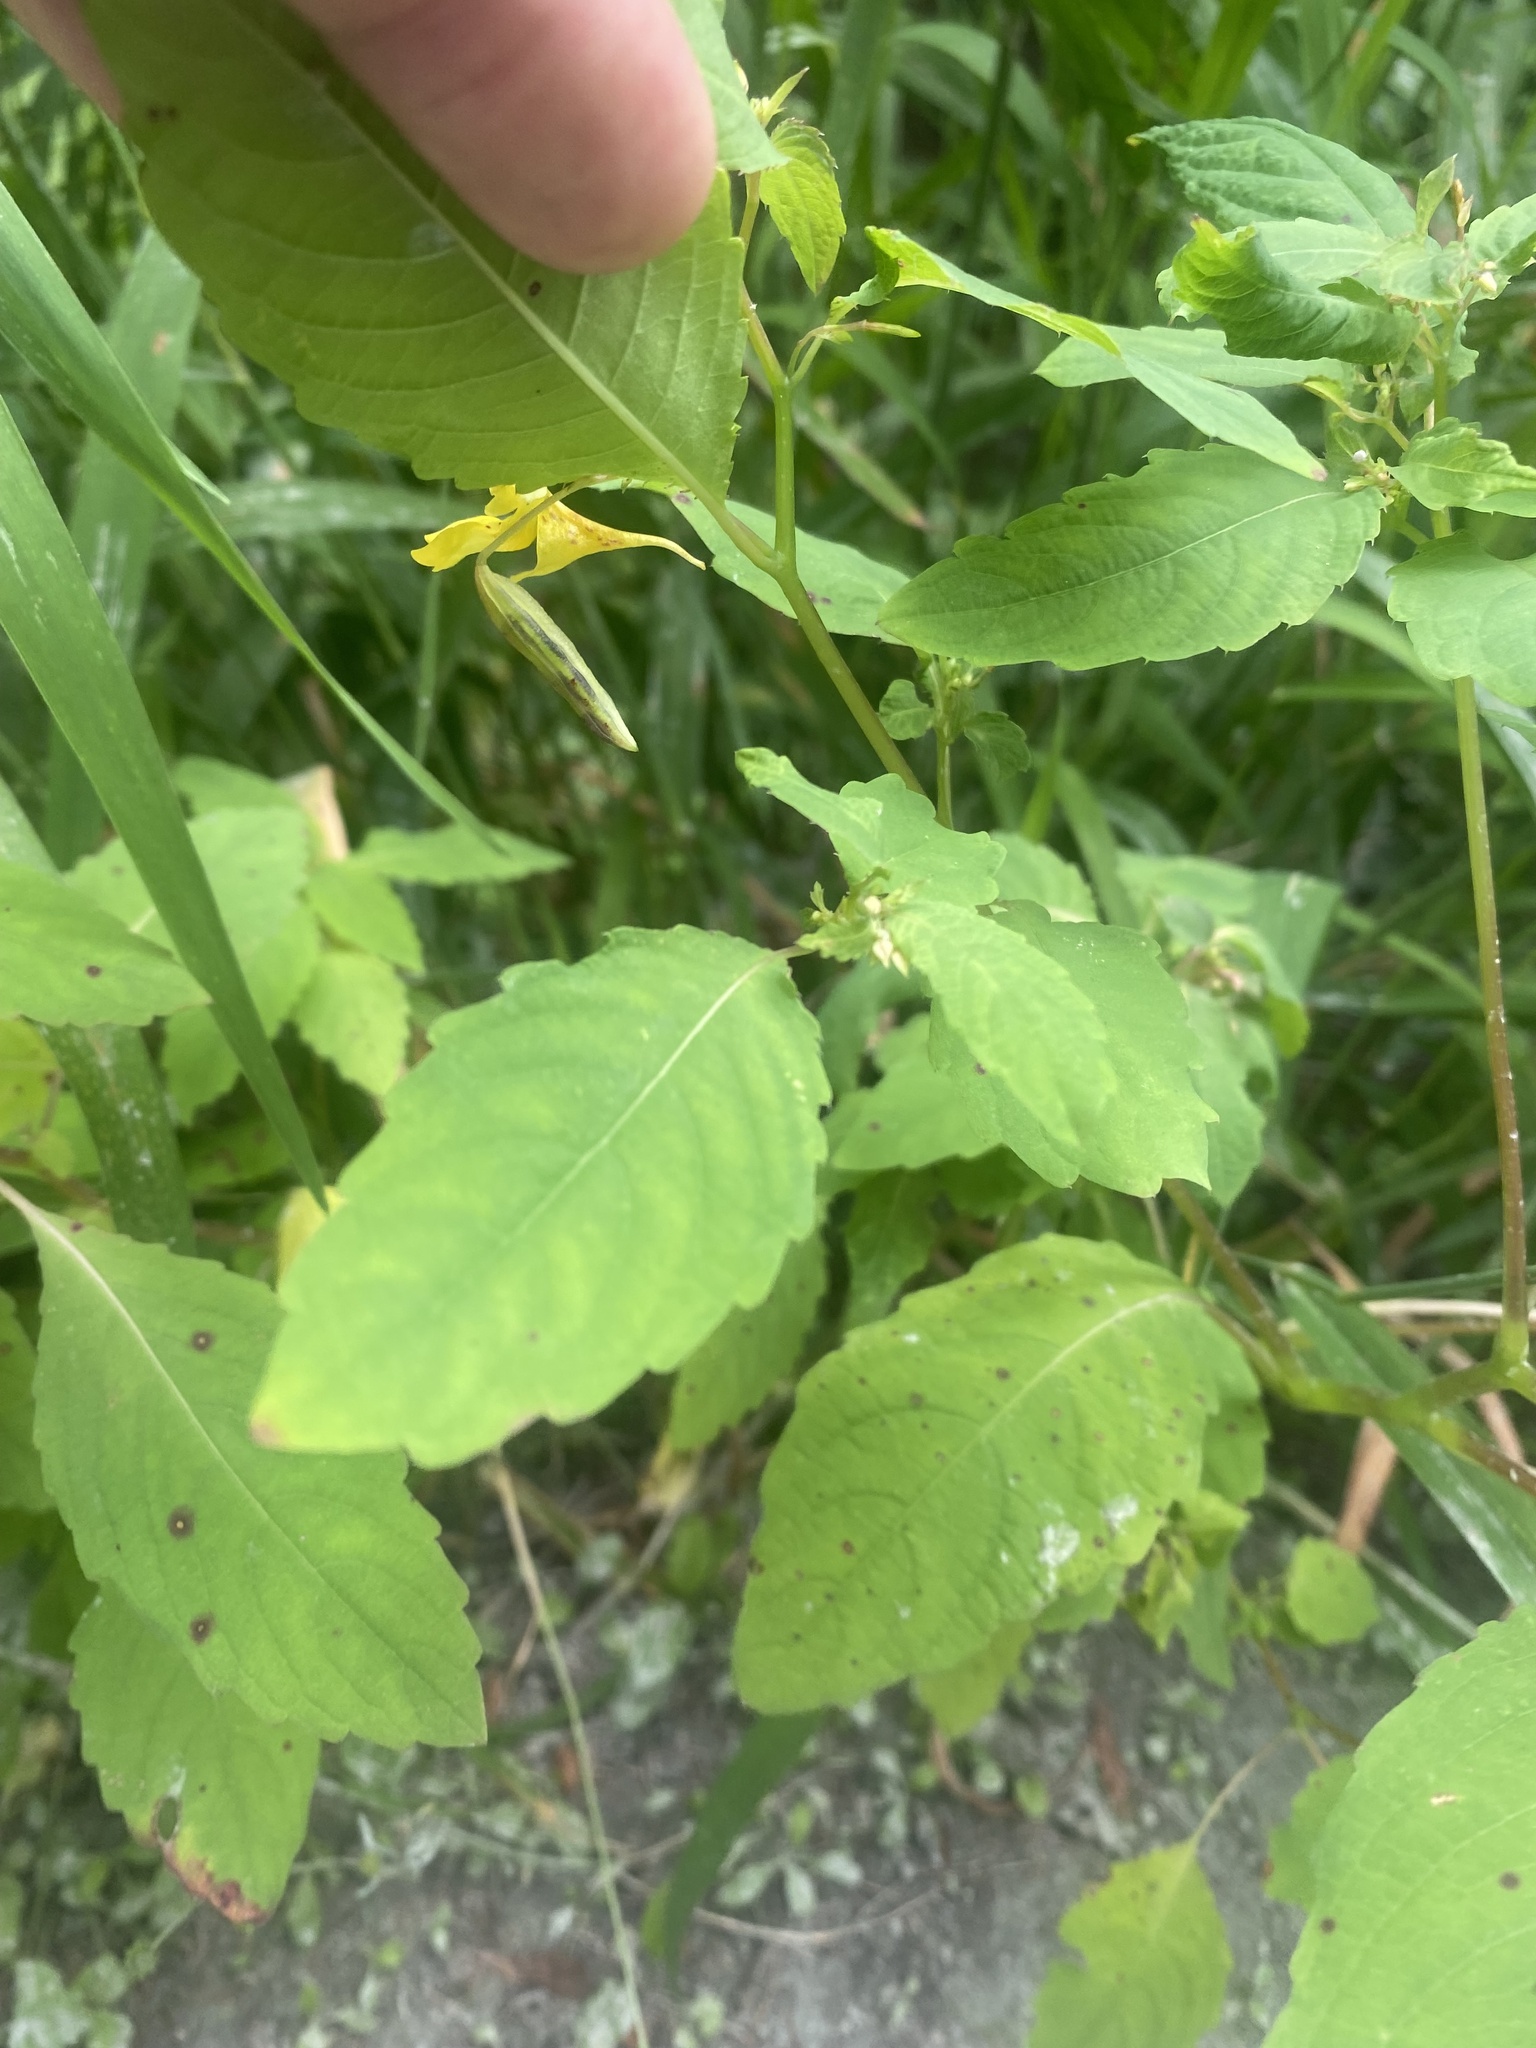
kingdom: Plantae
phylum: Tracheophyta
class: Magnoliopsida
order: Ericales
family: Balsaminaceae
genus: Impatiens
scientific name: Impatiens noli-tangere
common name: Touch-me-not balsam
